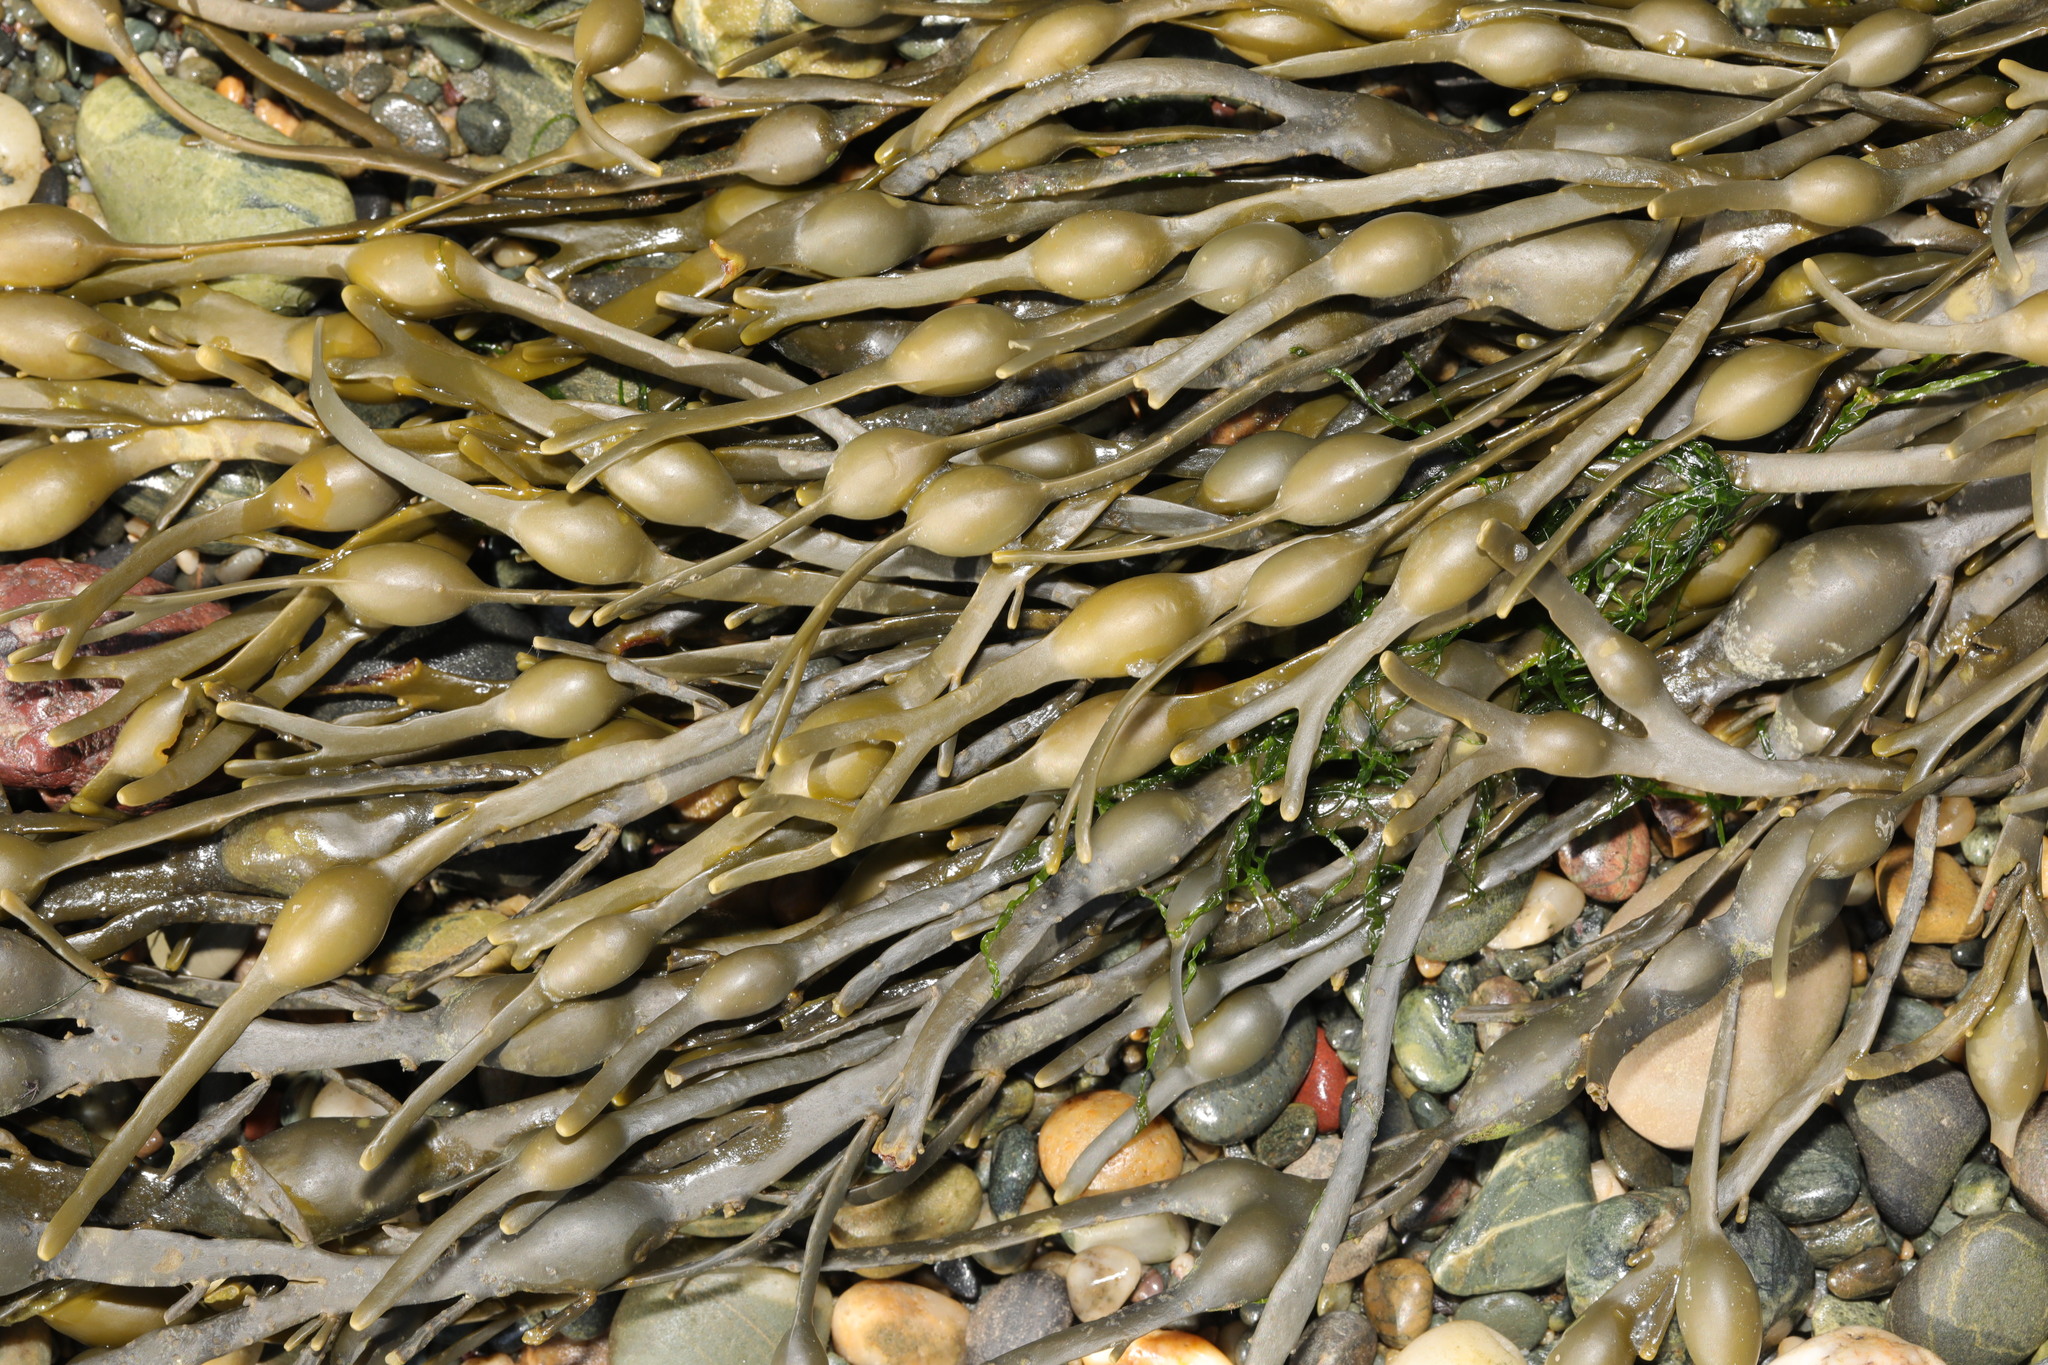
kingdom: Chromista
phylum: Ochrophyta
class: Phaeophyceae
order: Fucales
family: Fucaceae
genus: Ascophyllum
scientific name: Ascophyllum nodosum
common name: Knotted wrack
